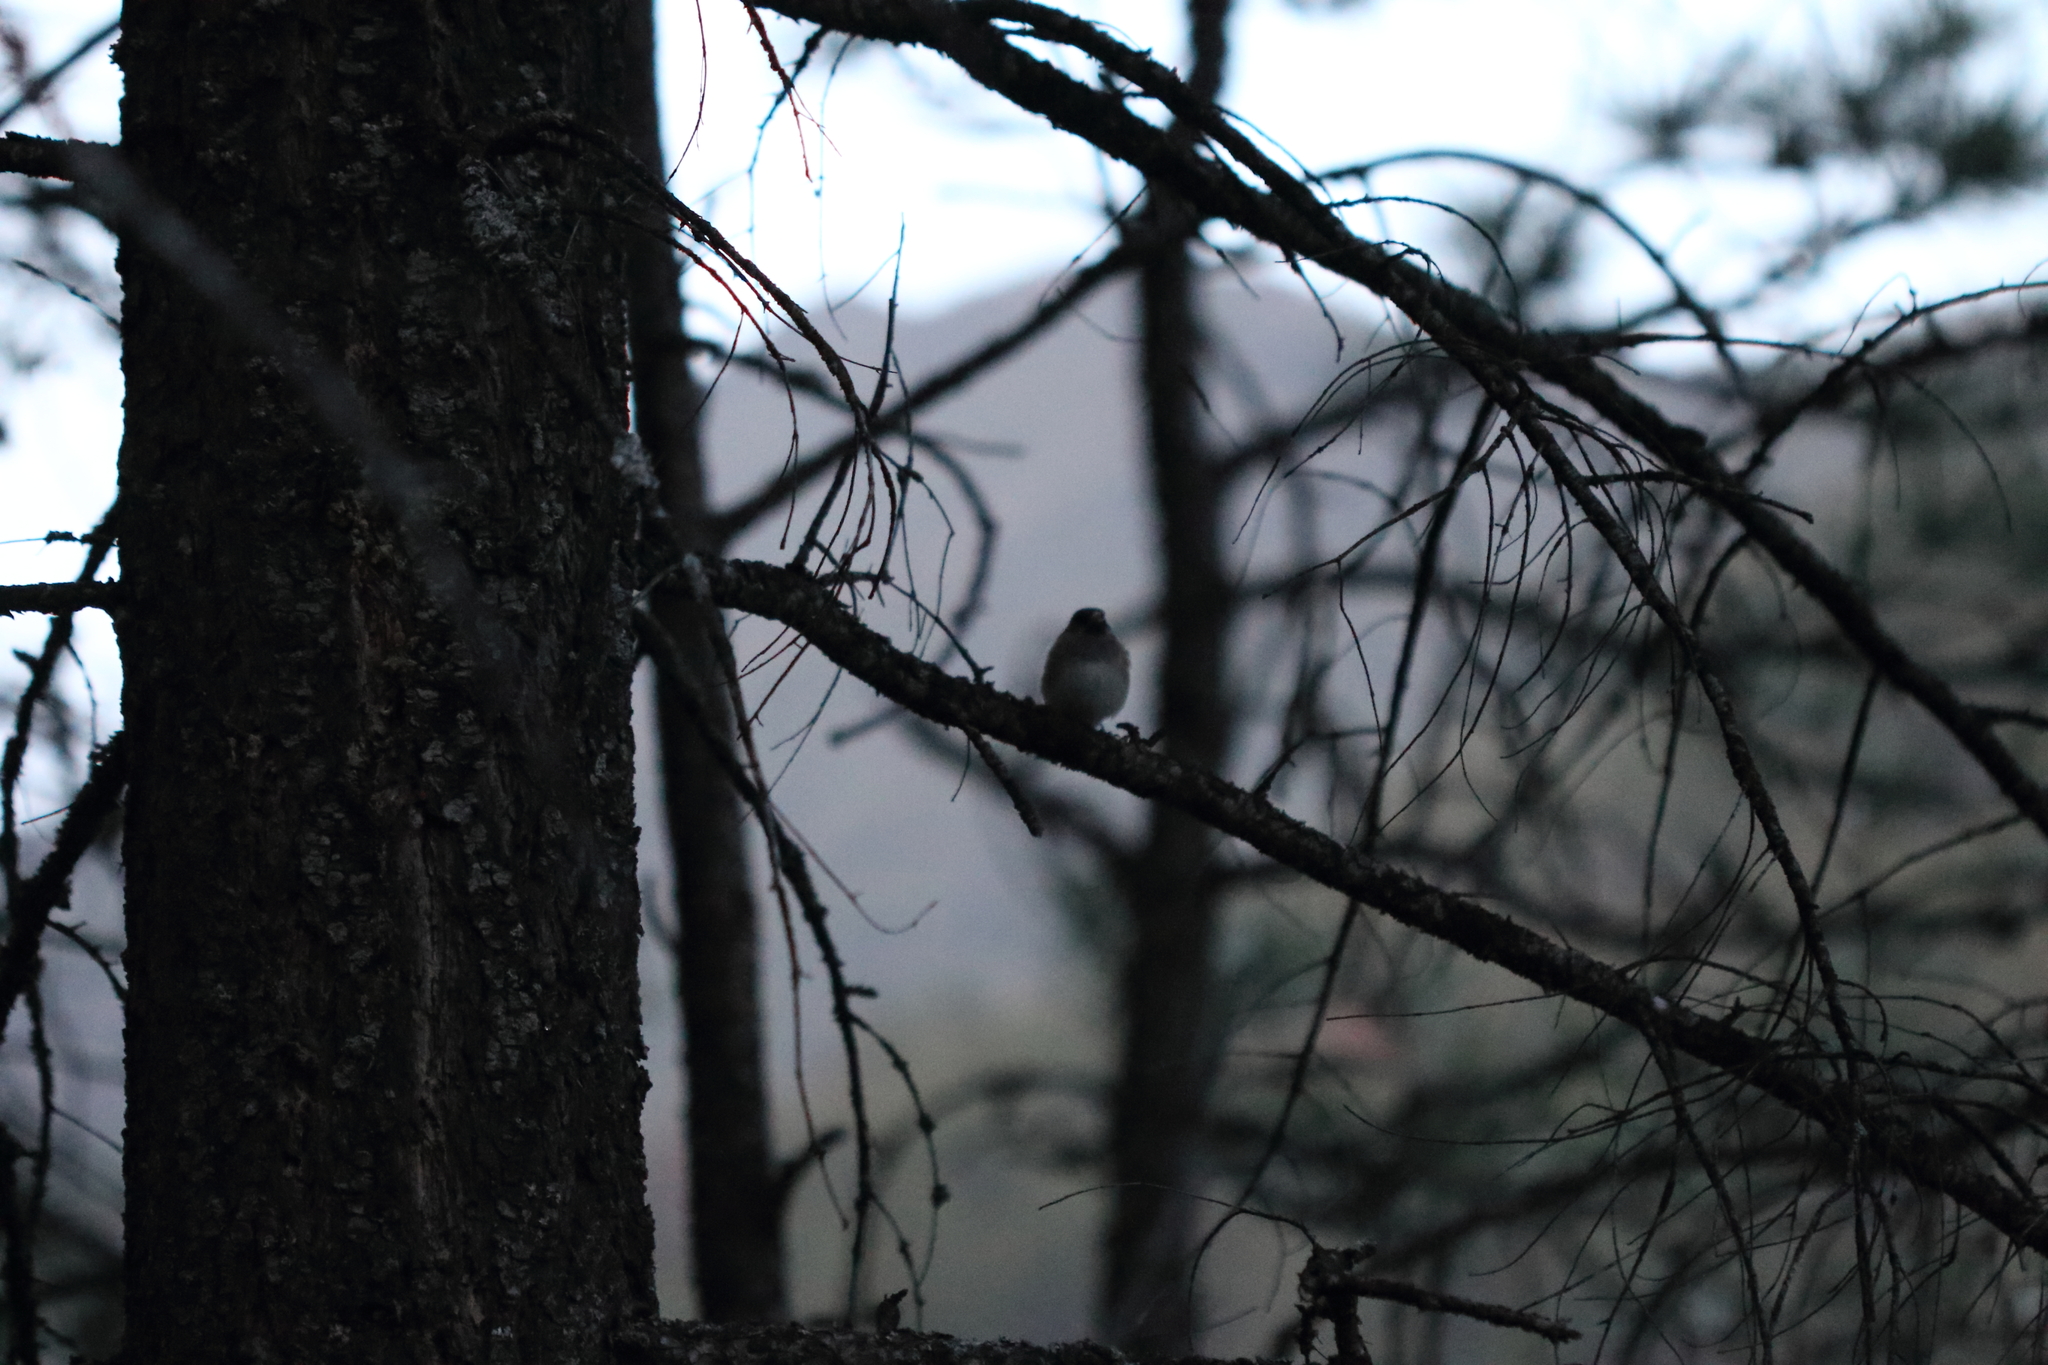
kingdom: Animalia
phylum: Chordata
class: Aves
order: Passeriformes
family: Passerellidae
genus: Junco
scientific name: Junco hyemalis
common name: Dark-eyed junco
